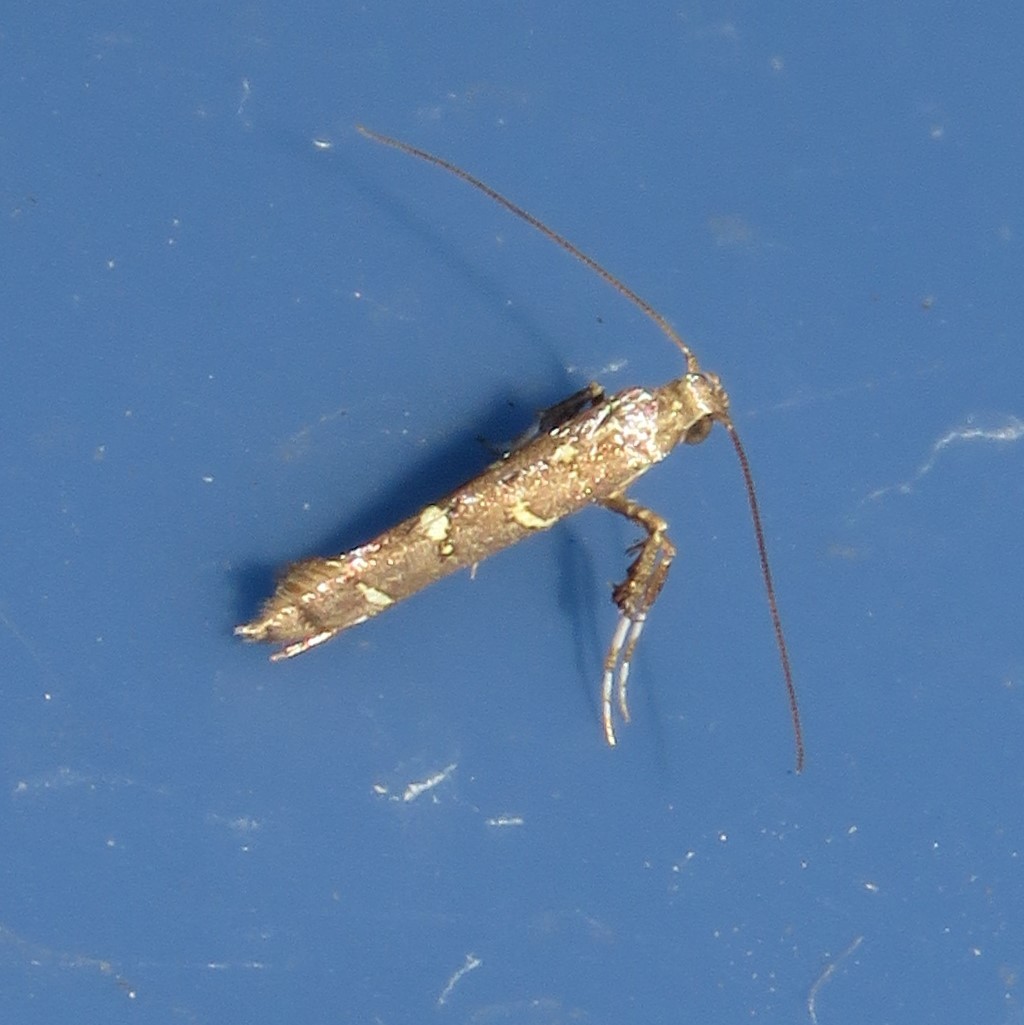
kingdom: Animalia
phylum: Arthropoda
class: Insecta
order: Lepidoptera
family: Gracillariidae
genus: Caloptilia
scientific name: Caloptilia triadicae
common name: Tallow leaf roller
